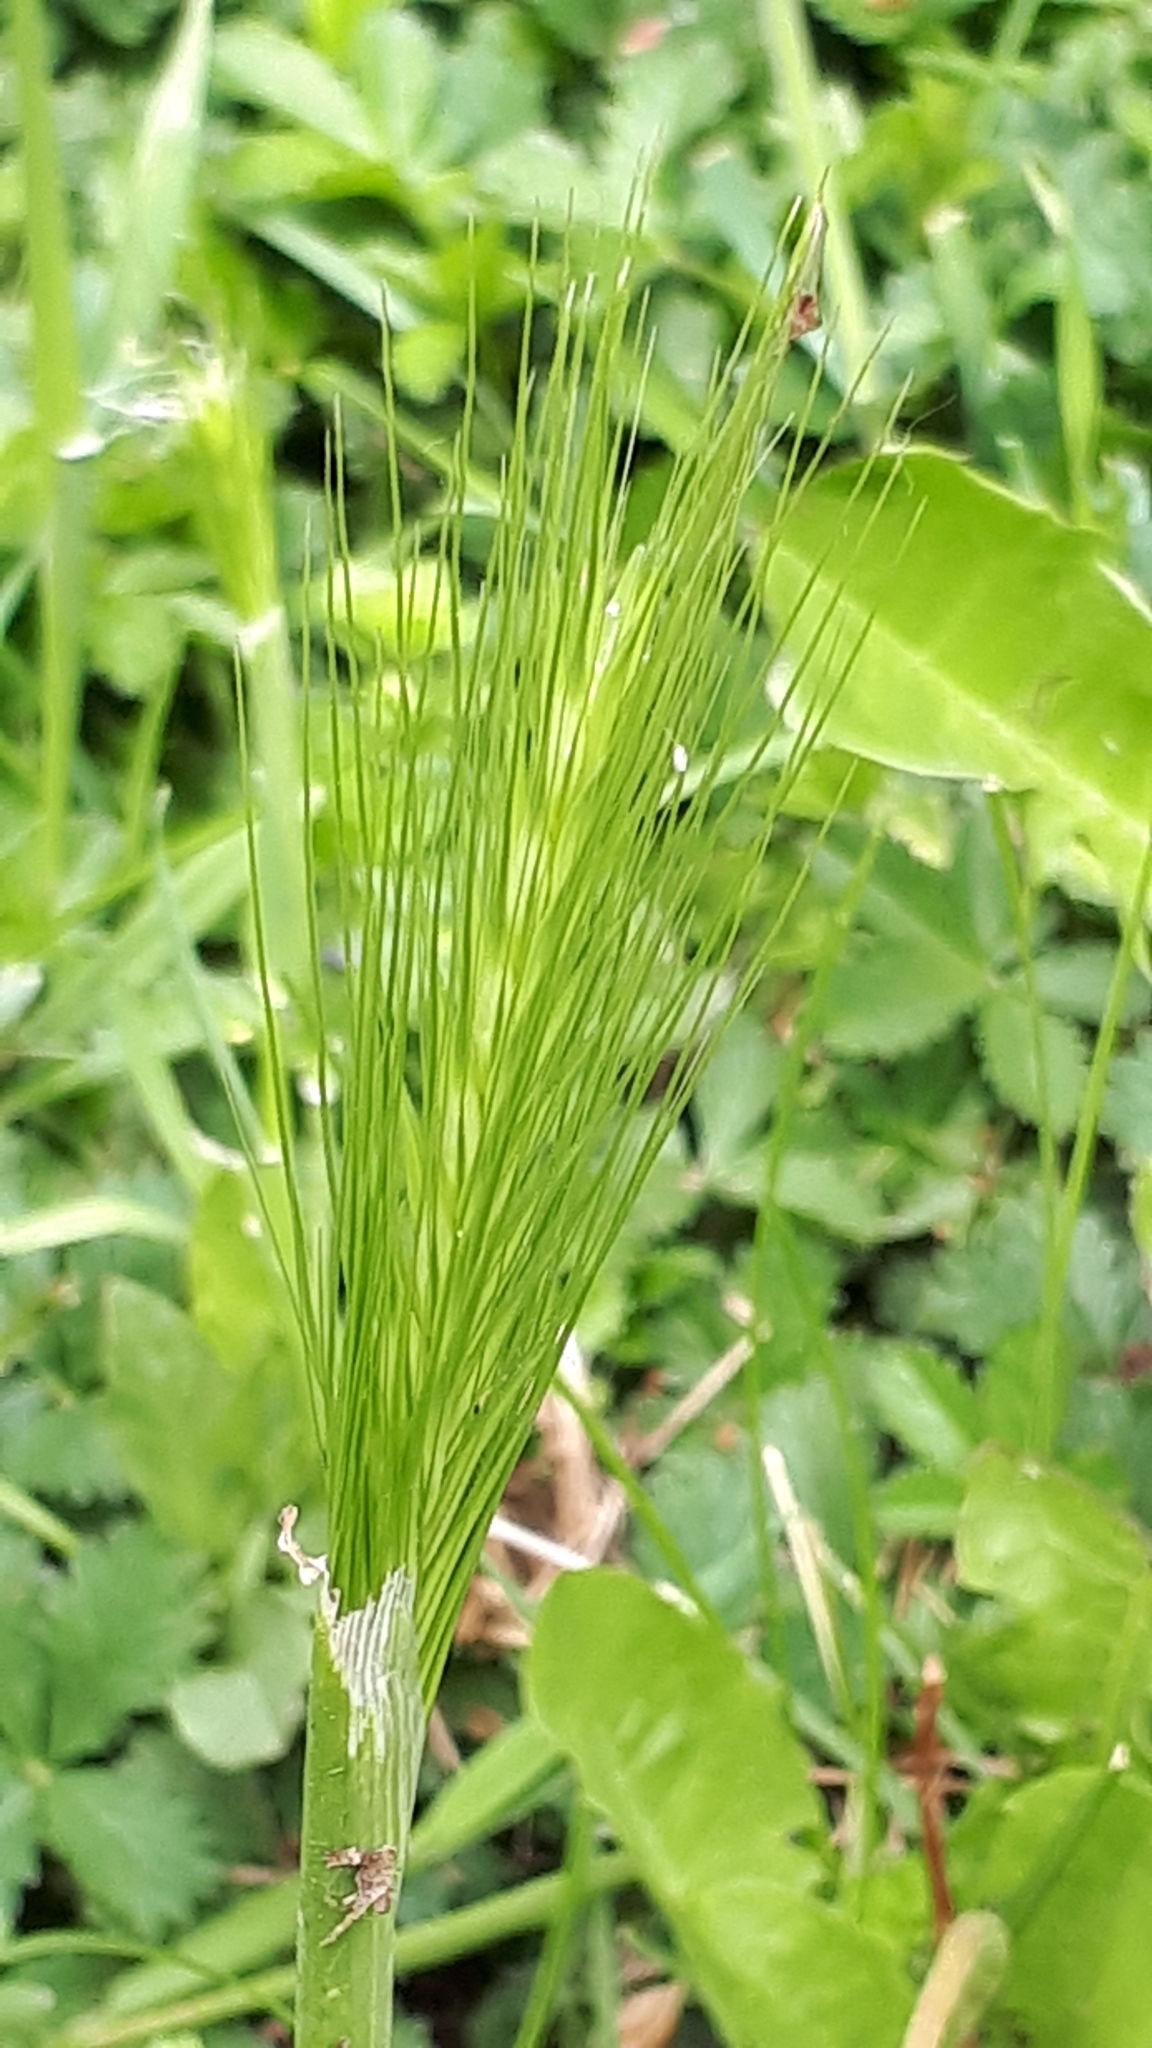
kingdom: Plantae
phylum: Tracheophyta
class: Liliopsida
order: Poales
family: Poaceae
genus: Hordeum
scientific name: Hordeum murinum
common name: Wall barley
